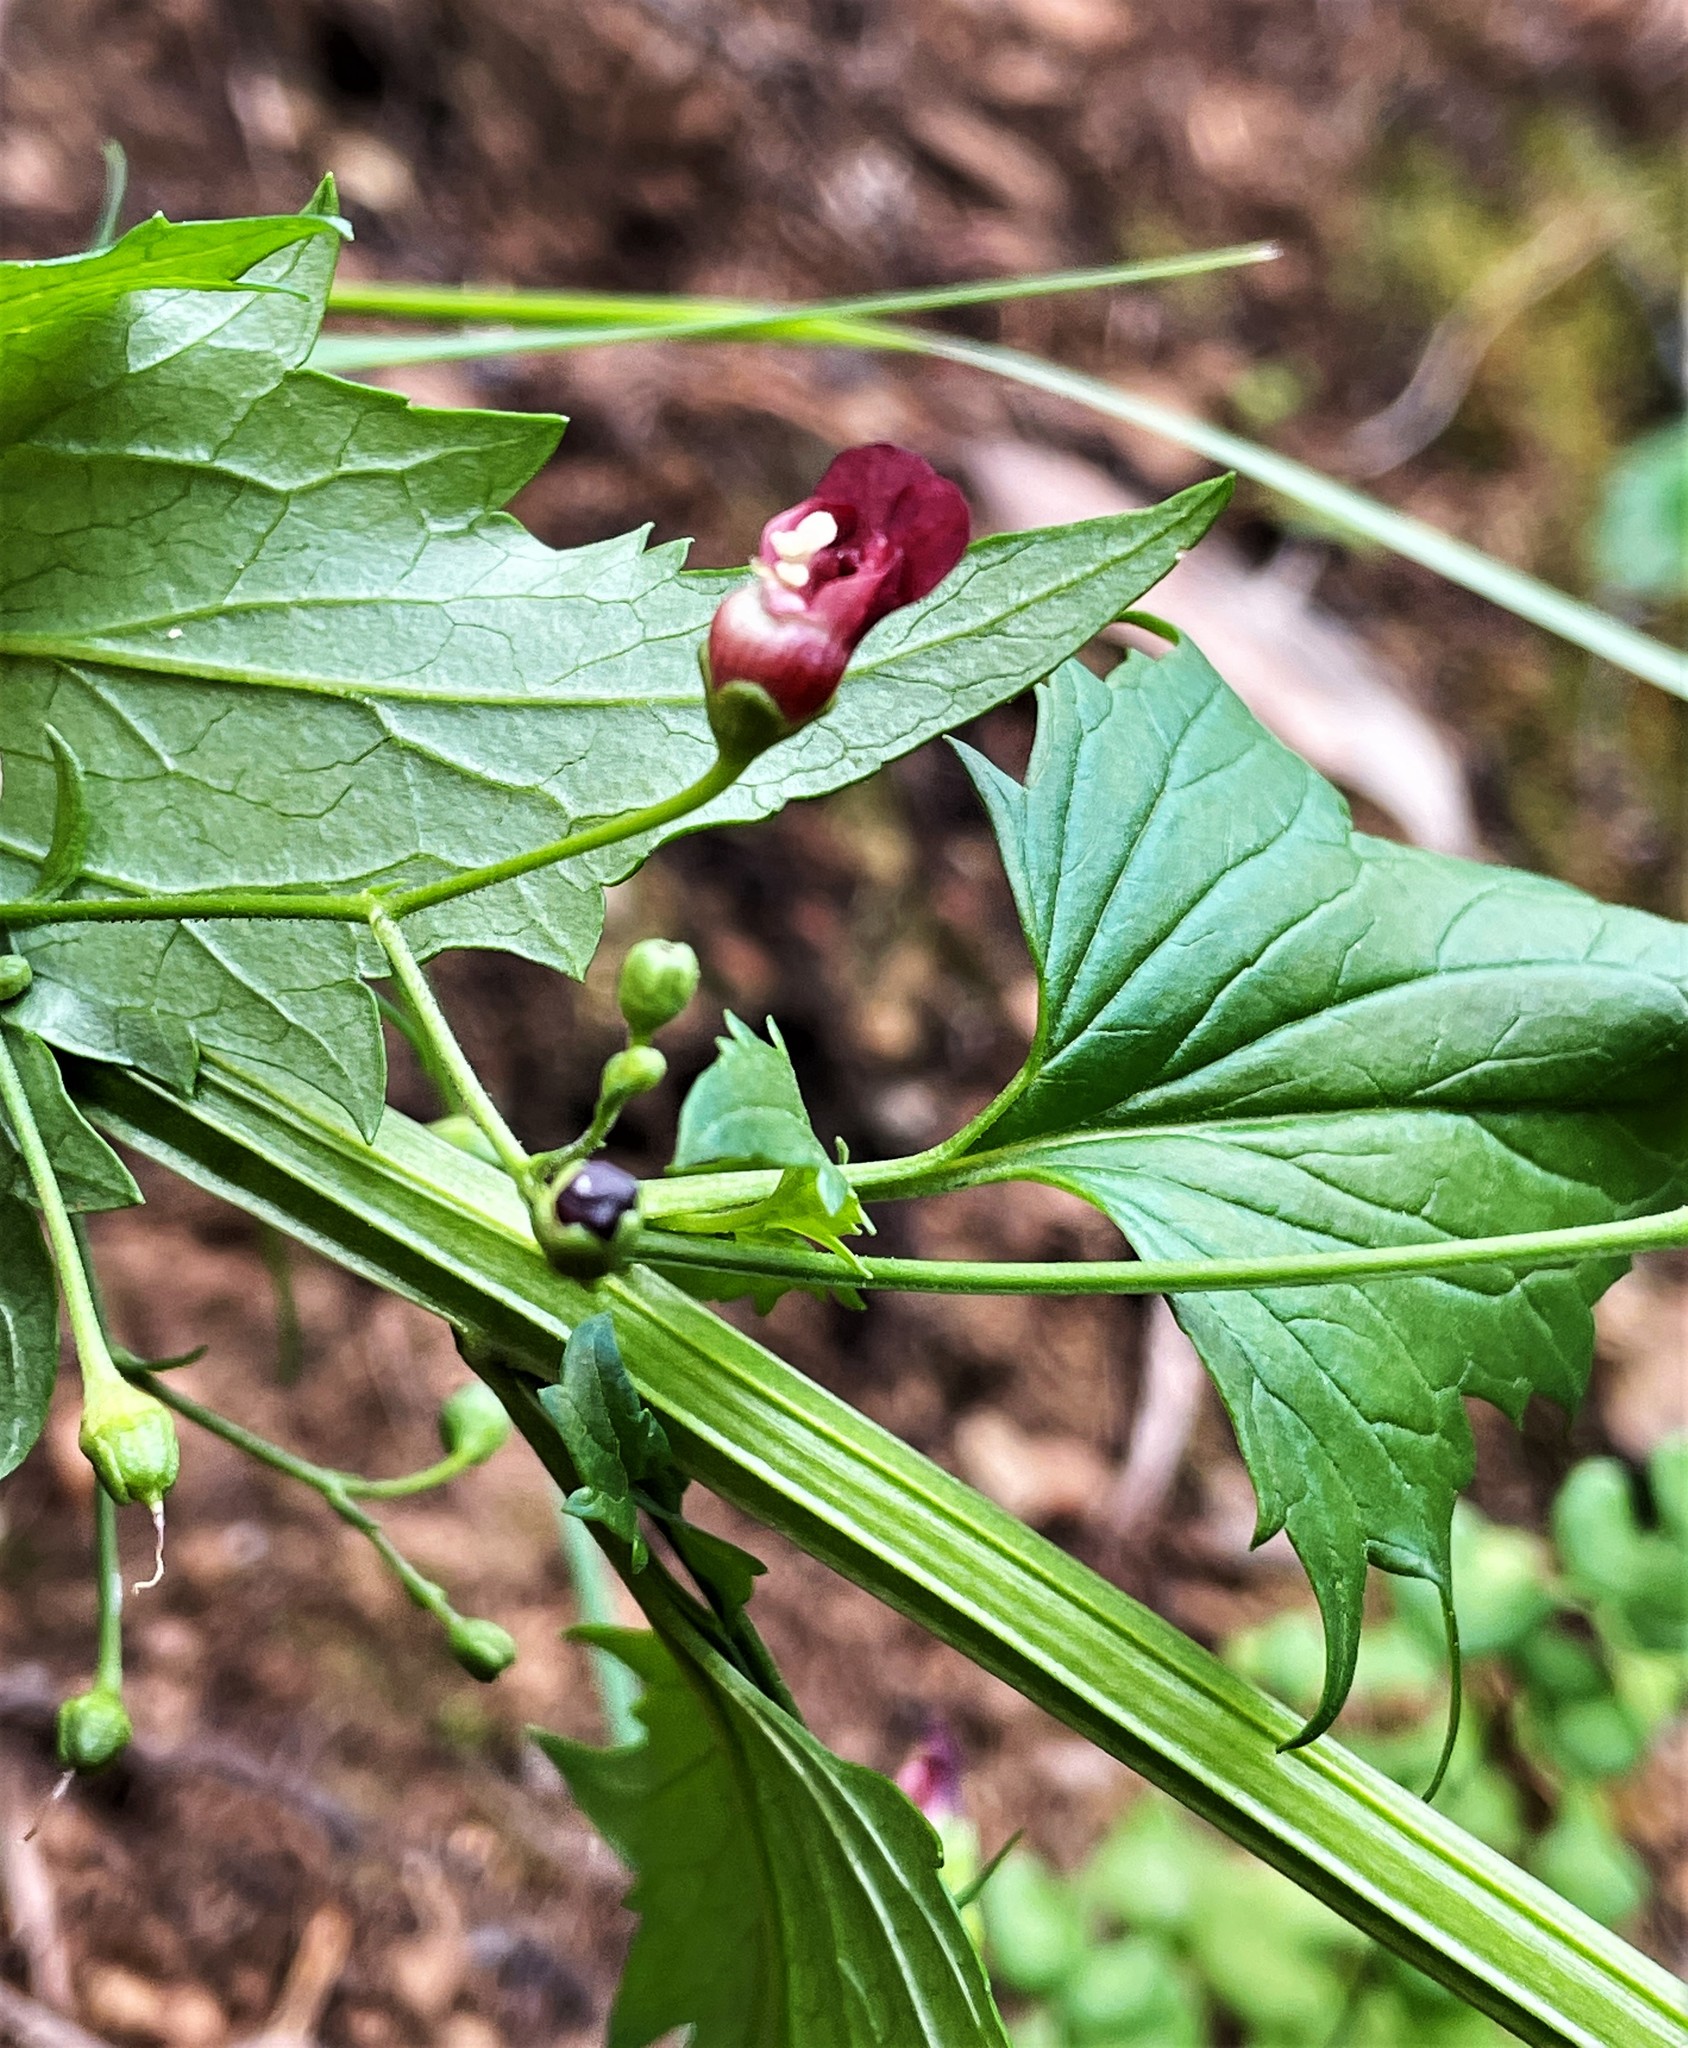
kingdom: Plantae
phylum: Tracheophyta
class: Magnoliopsida
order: Lamiales
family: Scrophulariaceae
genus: Scrophularia
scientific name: Scrophularia californica
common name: California figwort
